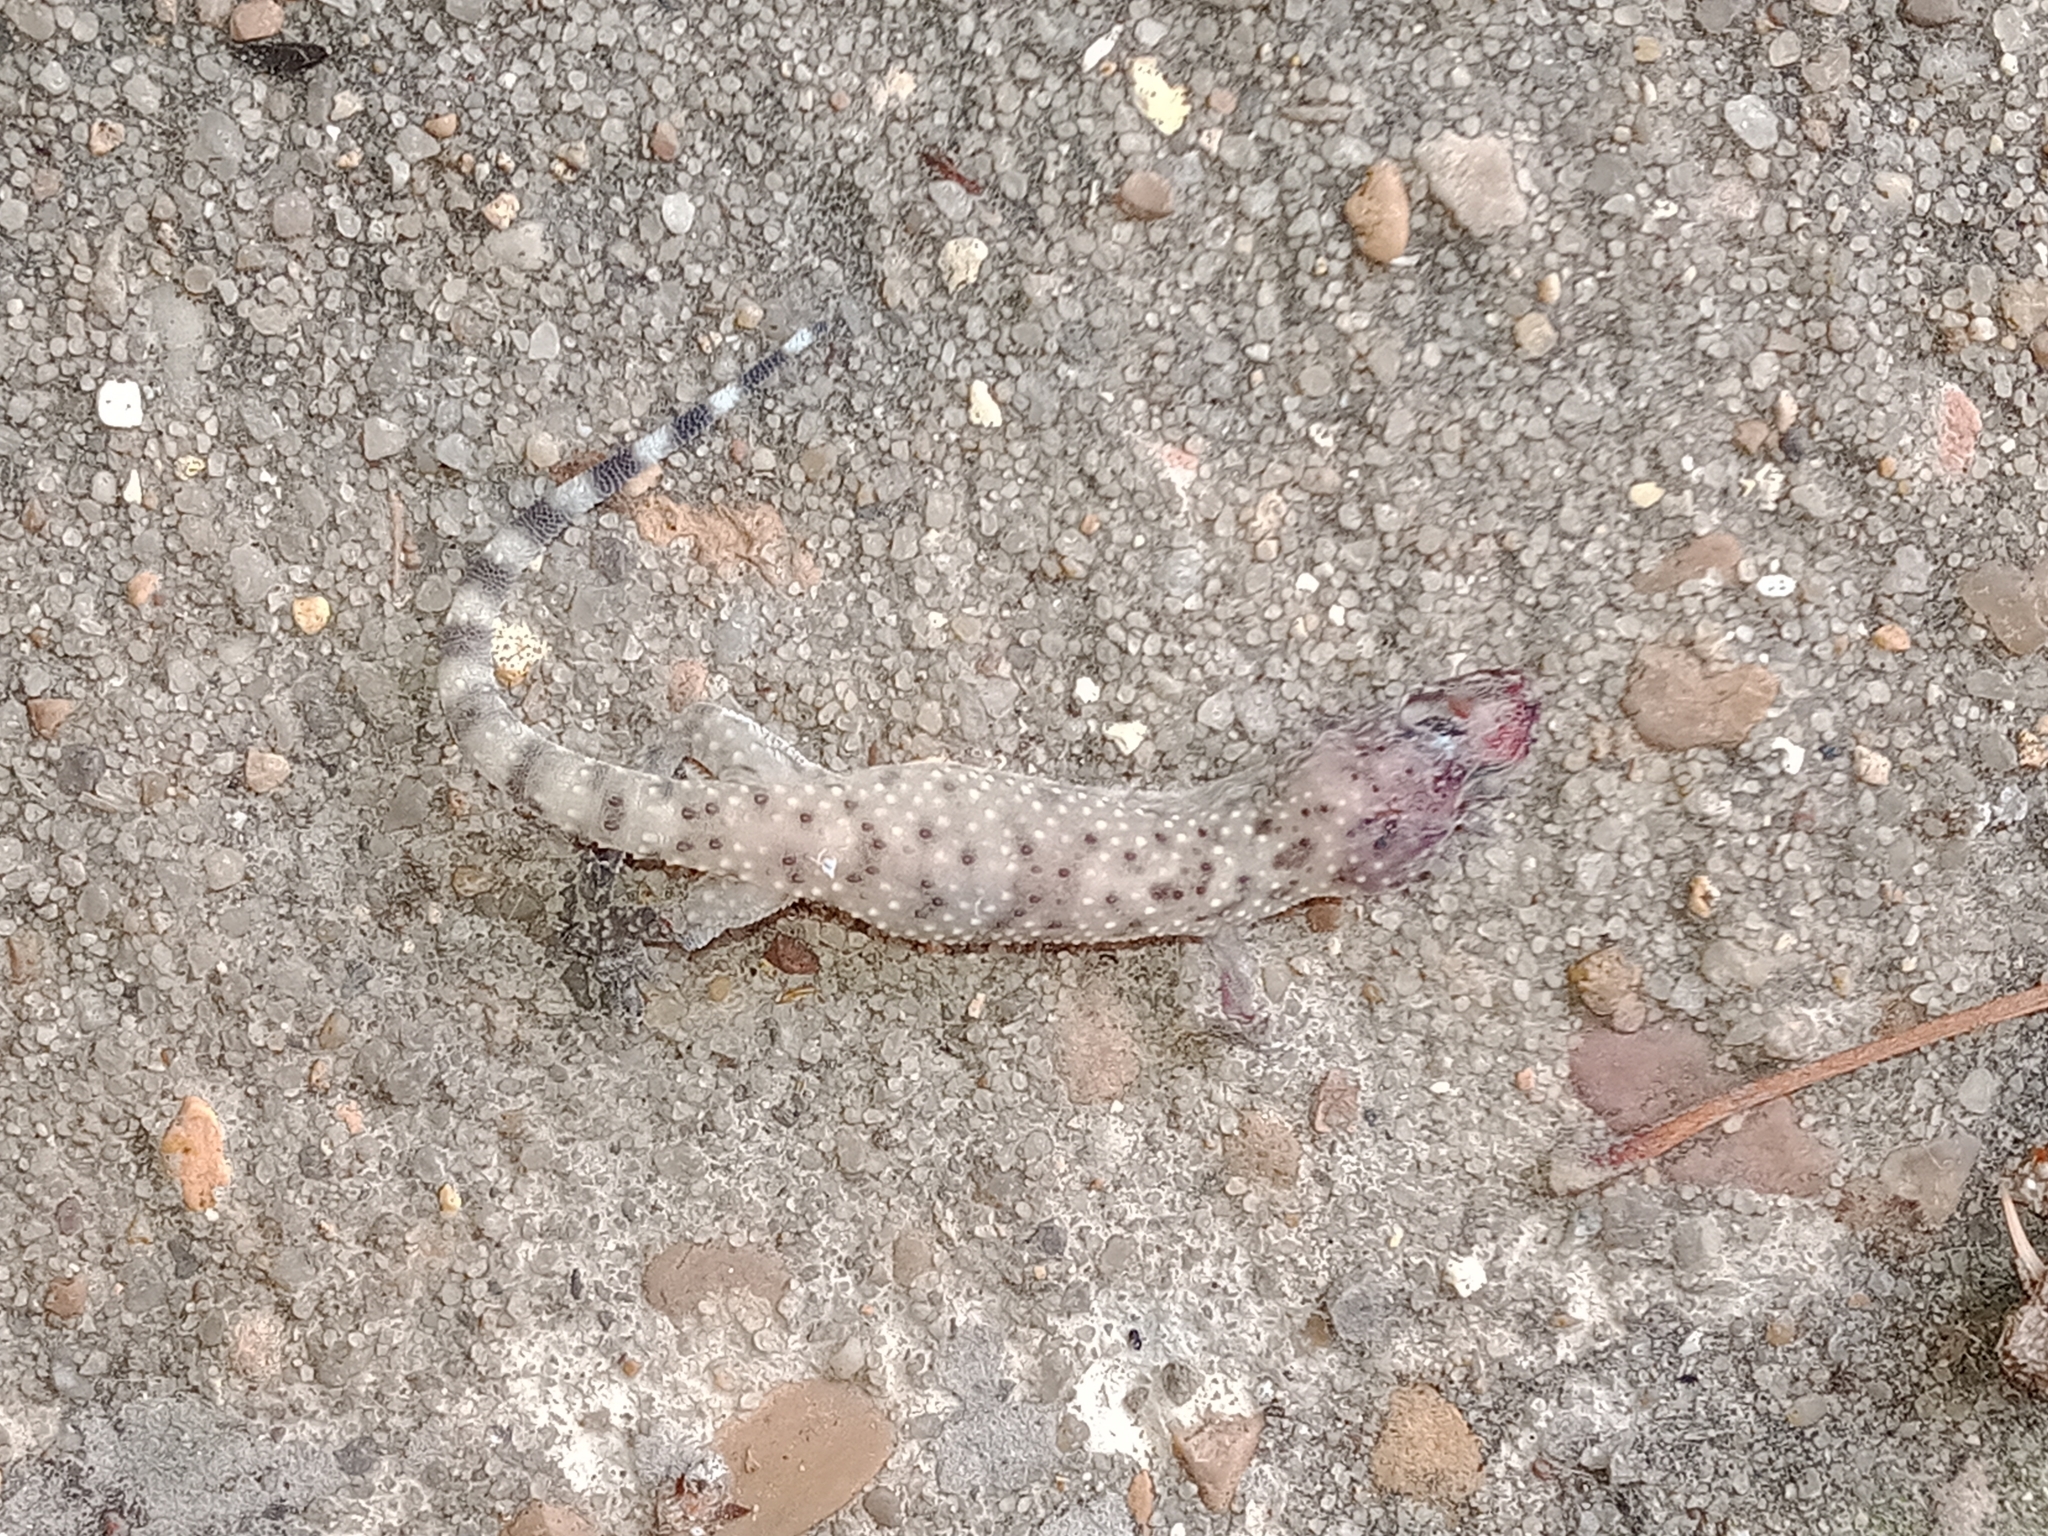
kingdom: Animalia
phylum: Chordata
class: Squamata
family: Gekkonidae
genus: Hemidactylus
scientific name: Hemidactylus turcicus
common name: Turkish gecko
